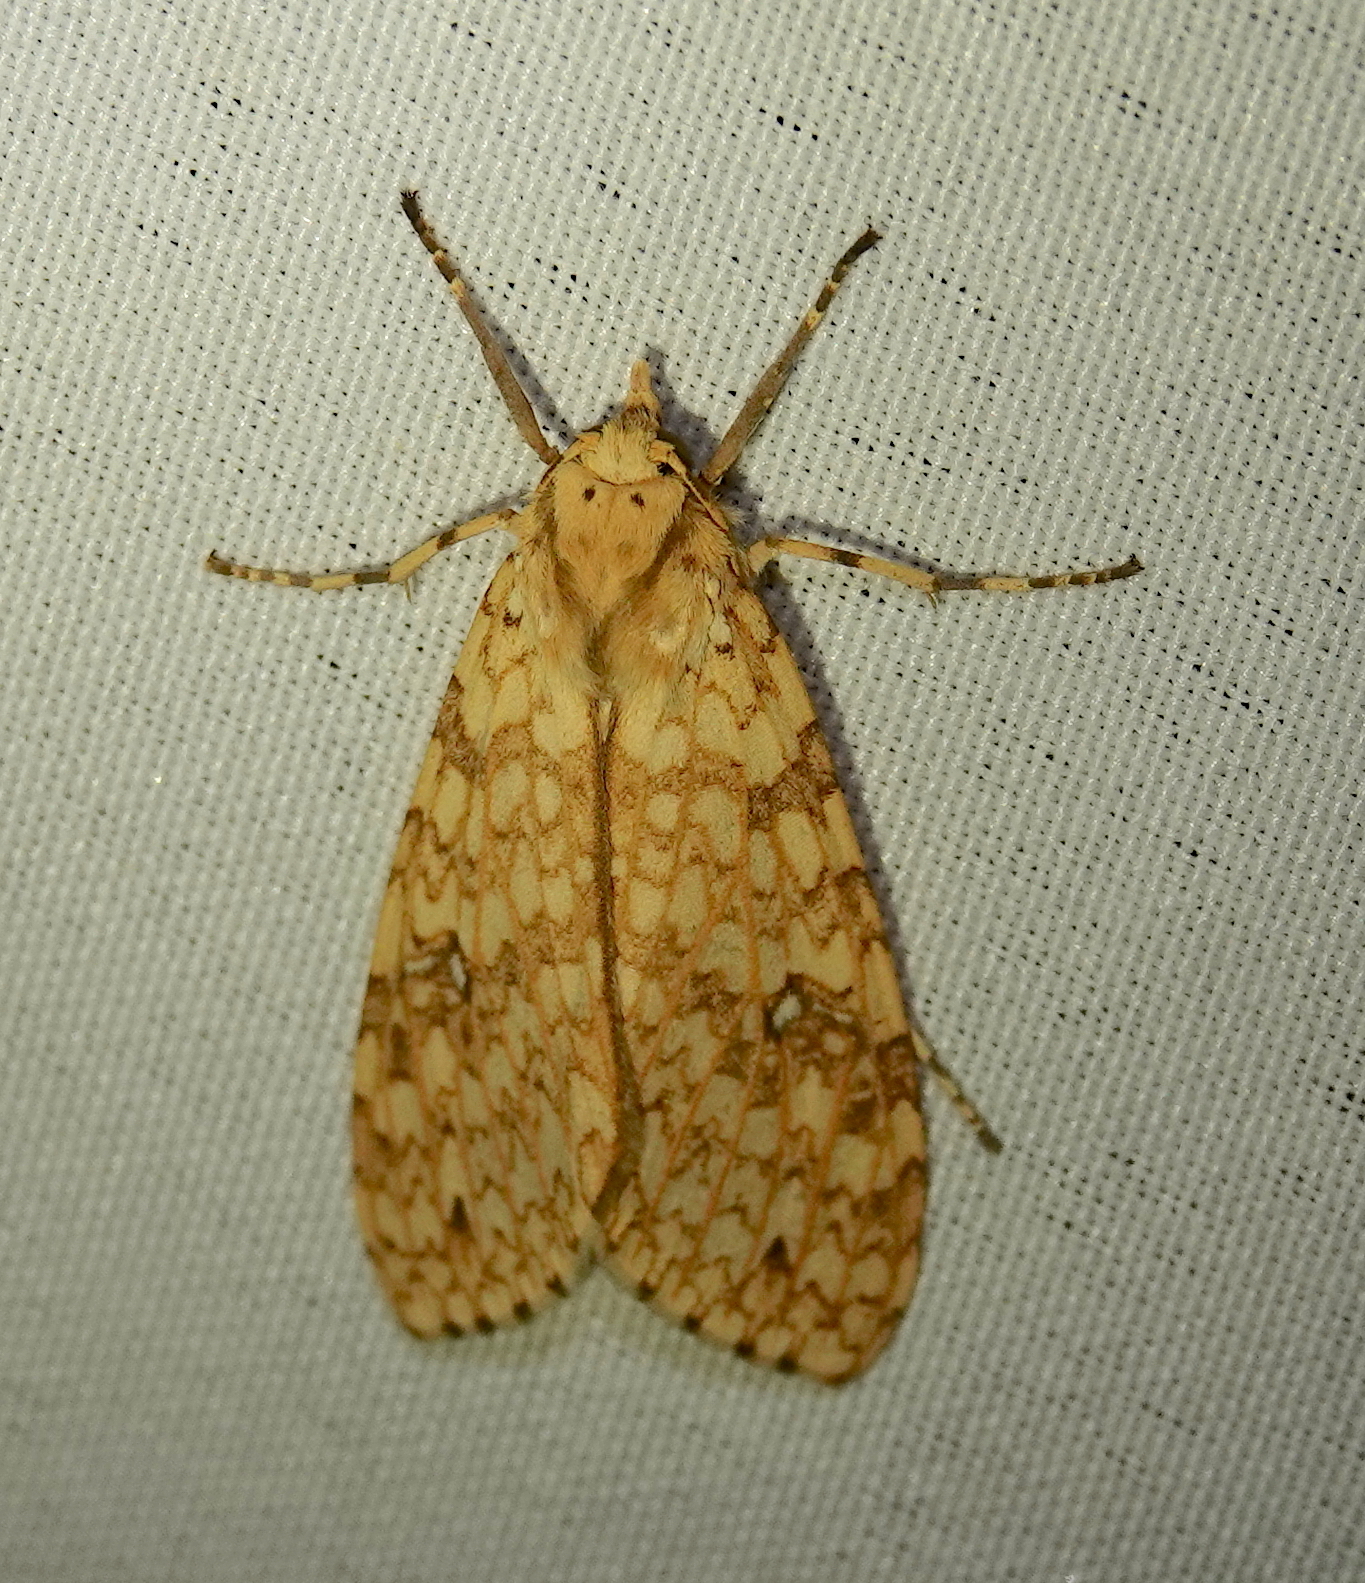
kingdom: Animalia
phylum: Arthropoda
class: Insecta
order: Lepidoptera
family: Erebidae
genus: Lophocampa
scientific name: Lophocampa maroniensis
